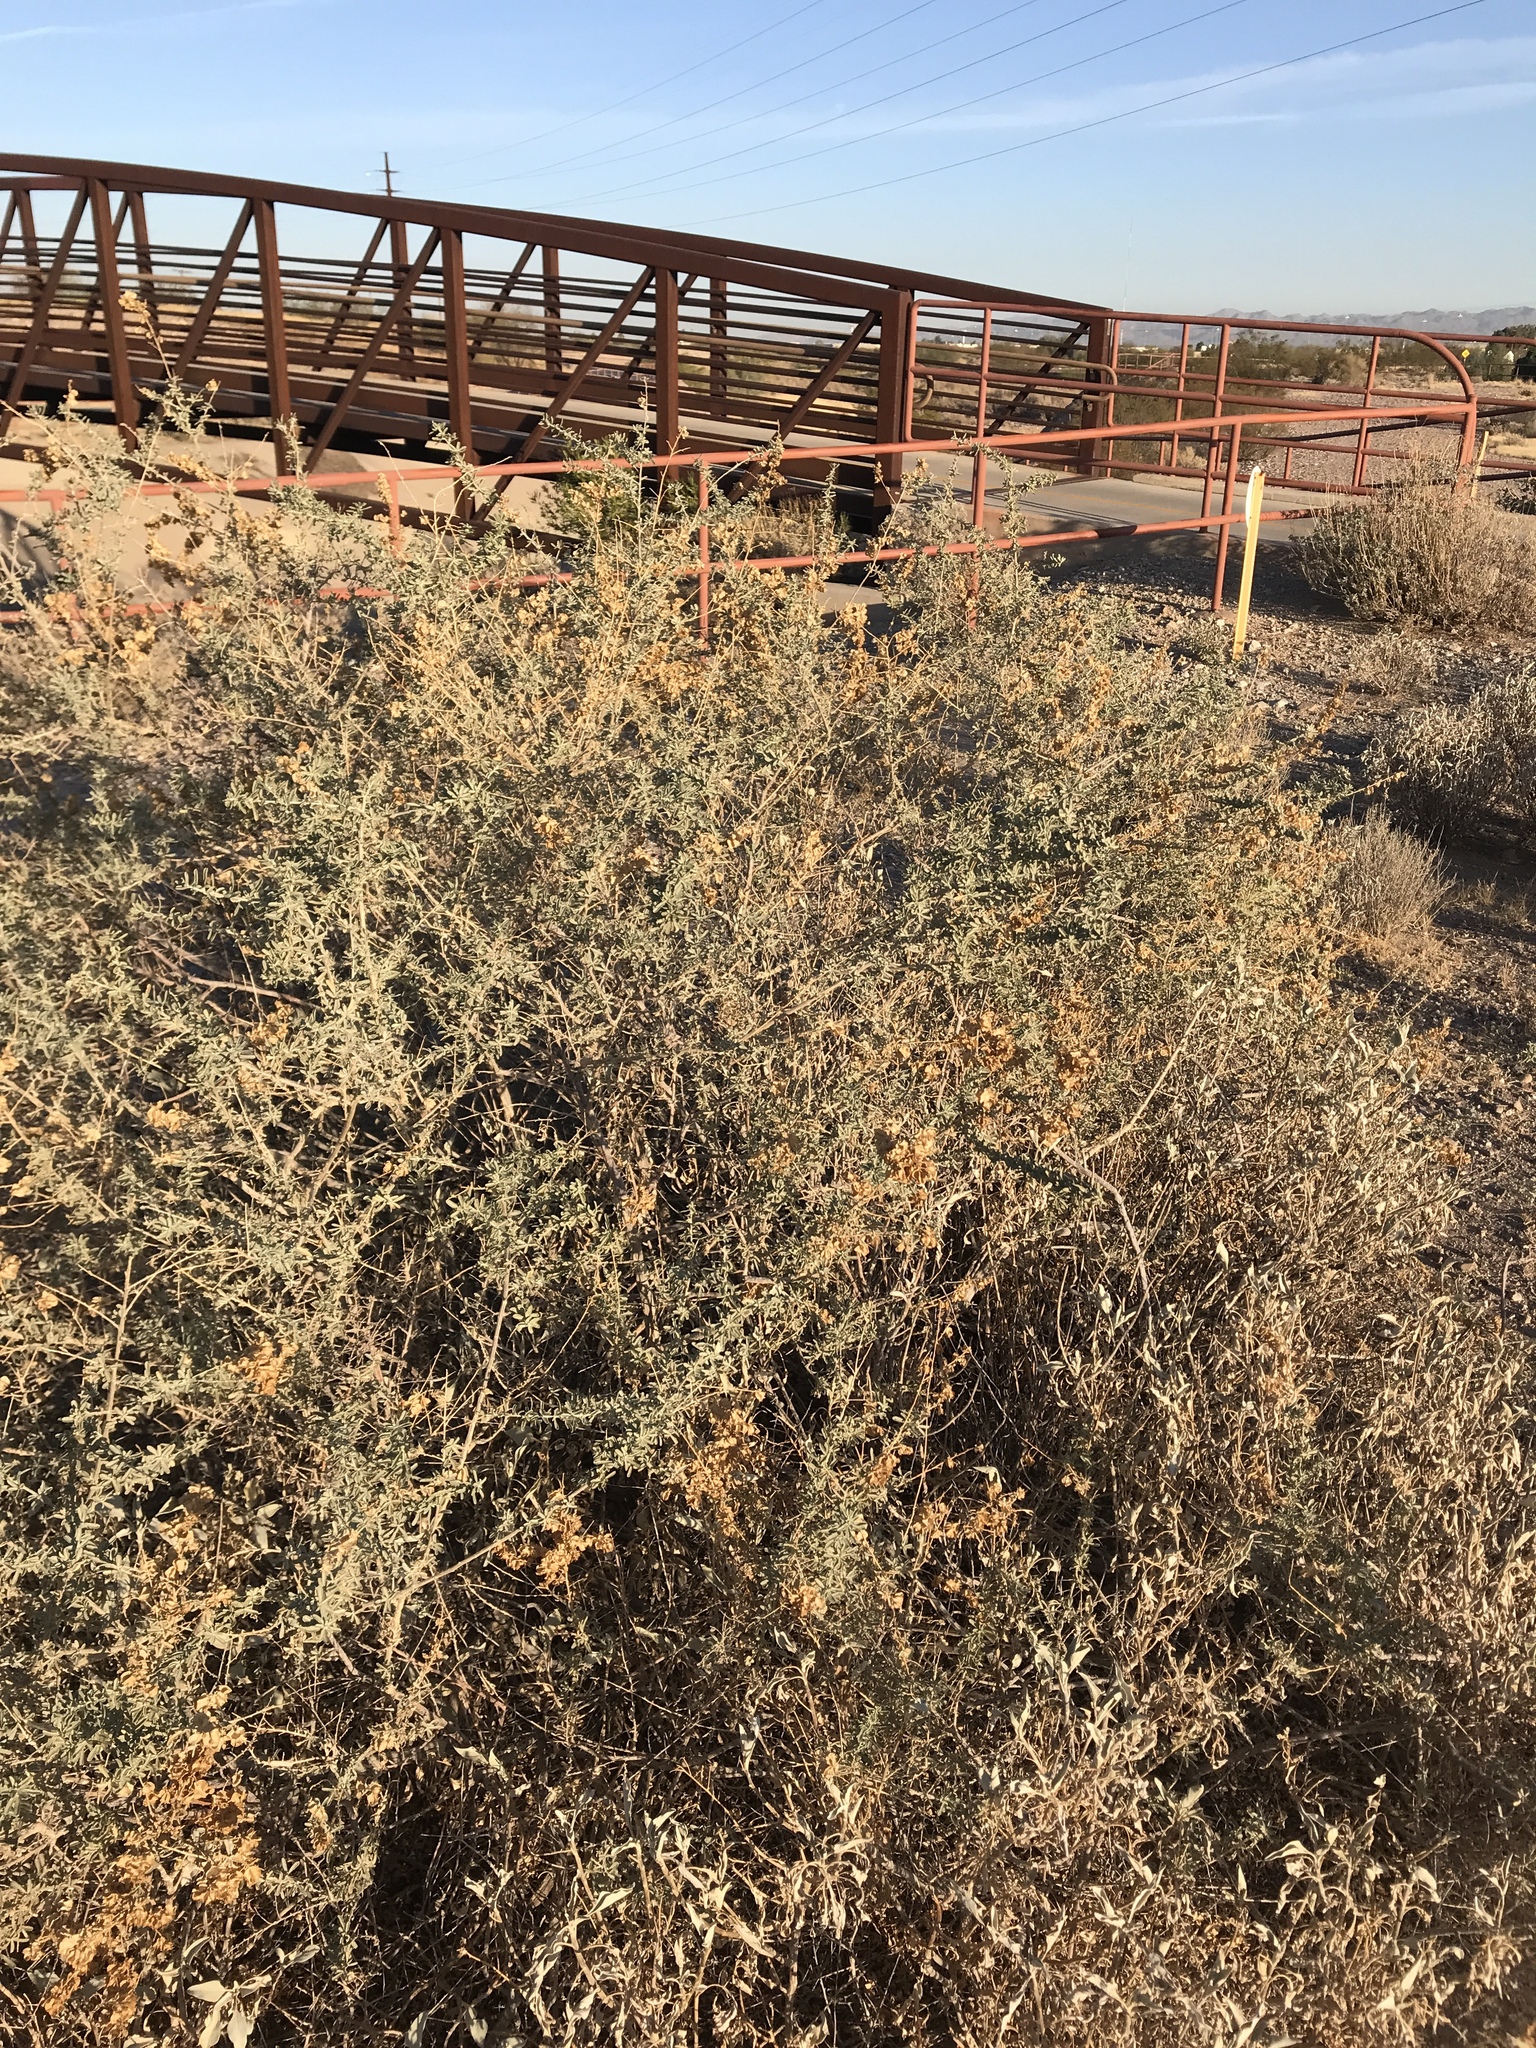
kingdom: Plantae
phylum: Tracheophyta
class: Magnoliopsida
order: Caryophyllales
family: Amaranthaceae
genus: Atriplex
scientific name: Atriplex canescens
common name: Four-wing saltbush
